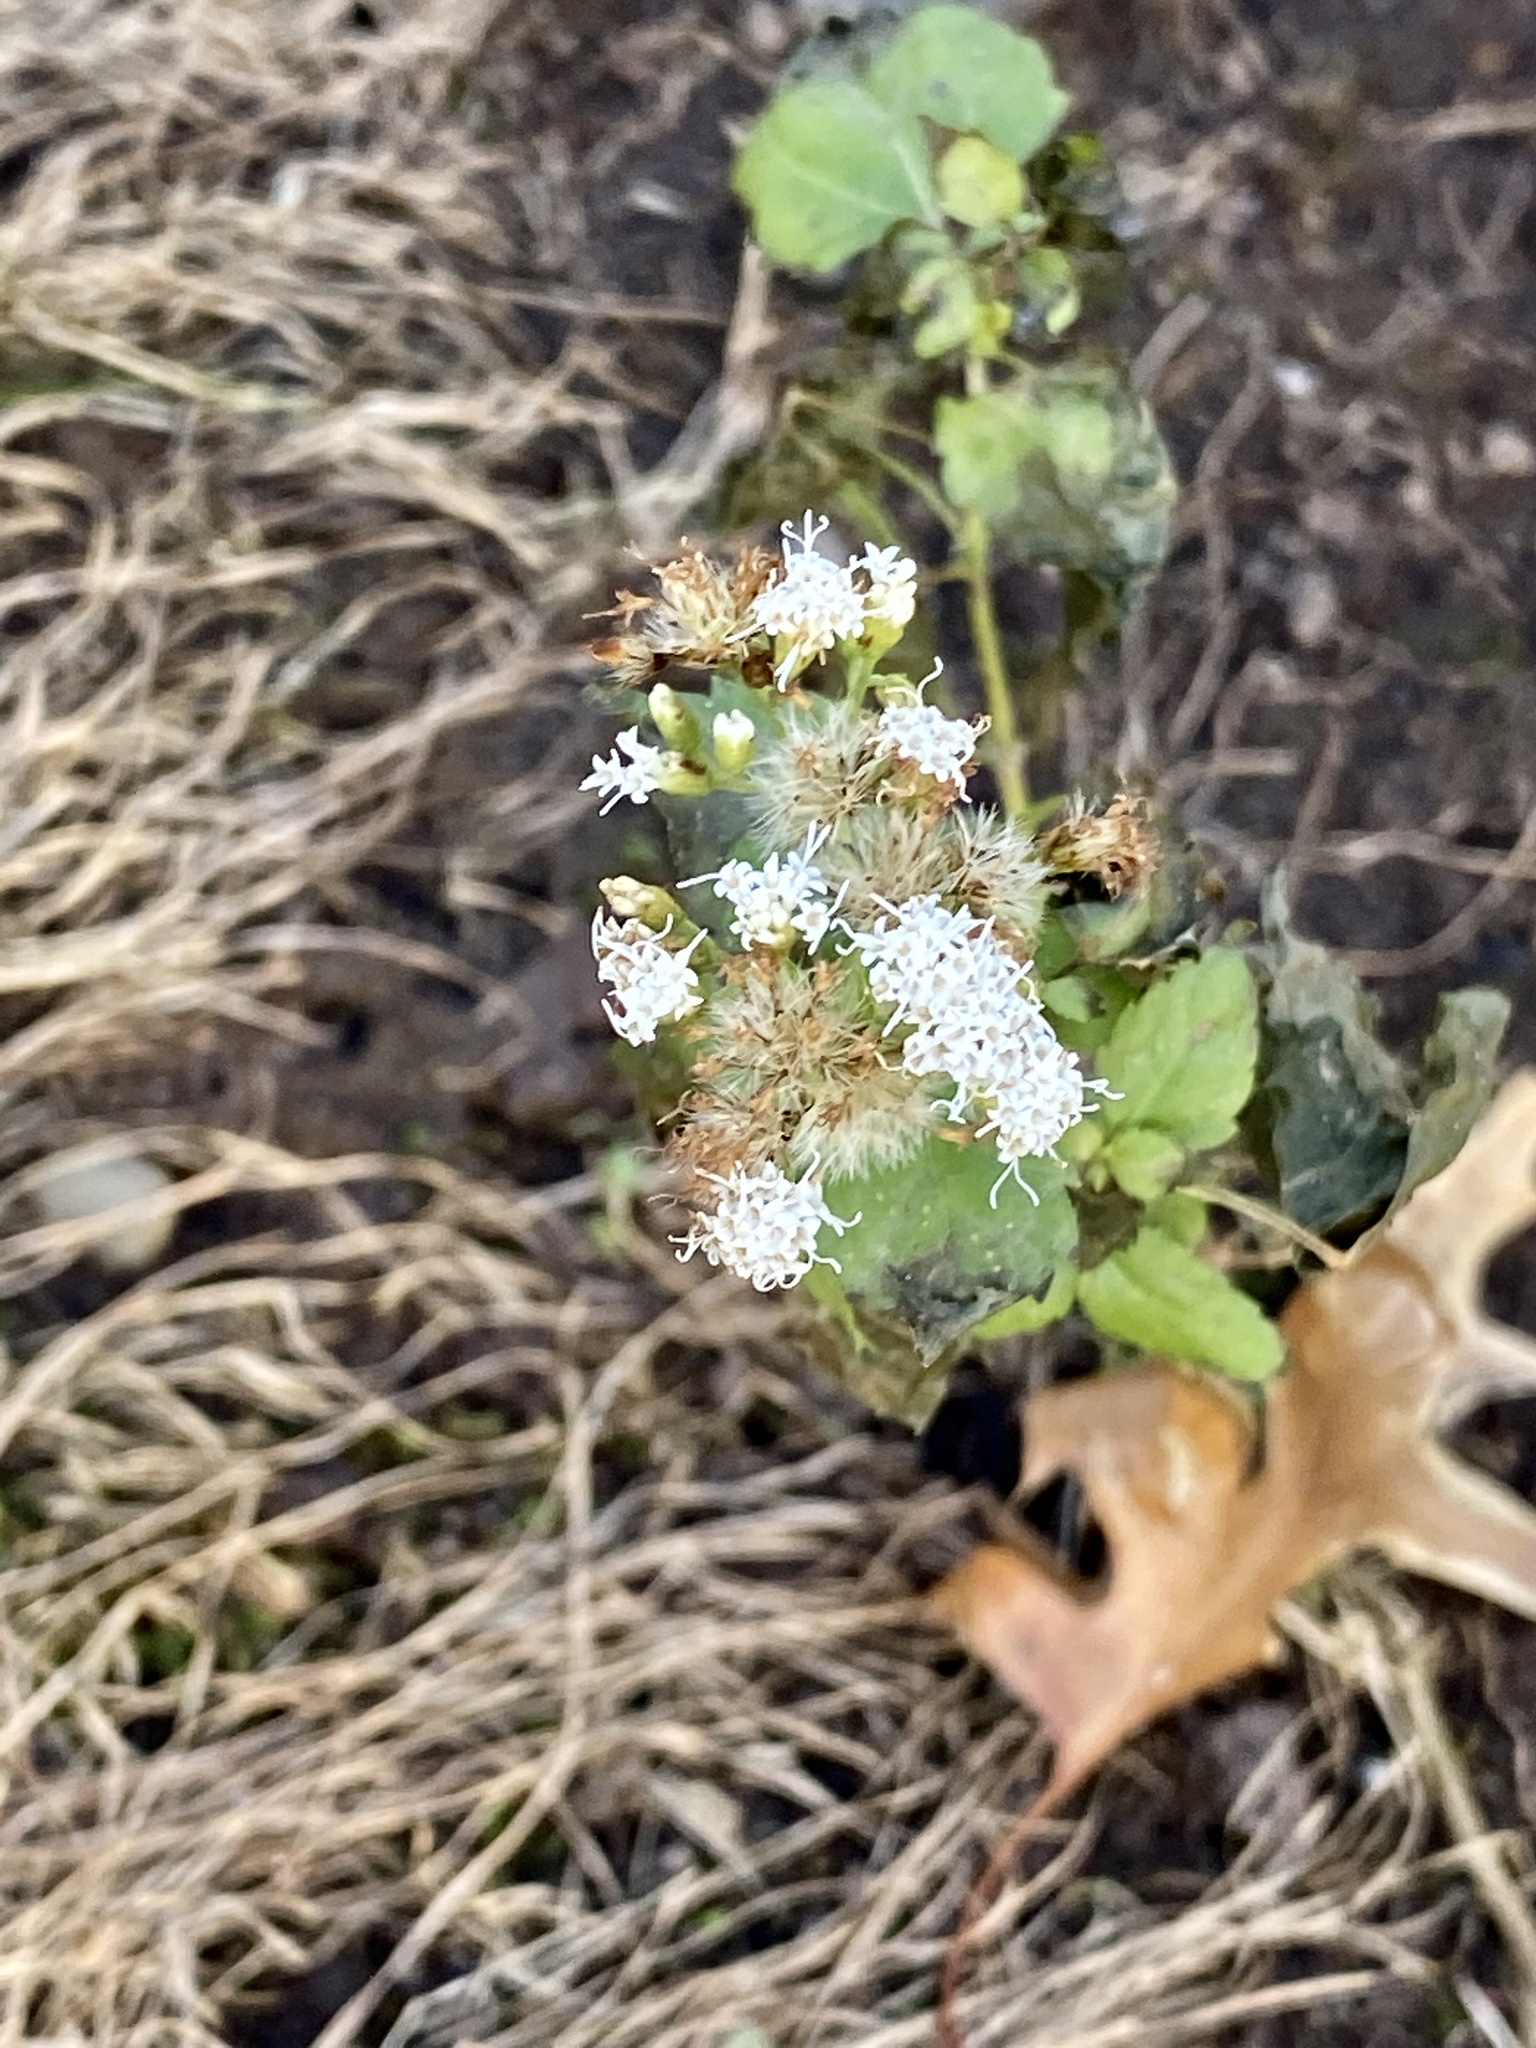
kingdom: Plantae
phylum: Tracheophyta
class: Magnoliopsida
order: Asterales
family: Asteraceae
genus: Ageratina
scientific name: Ageratina altissima
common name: White snakeroot
